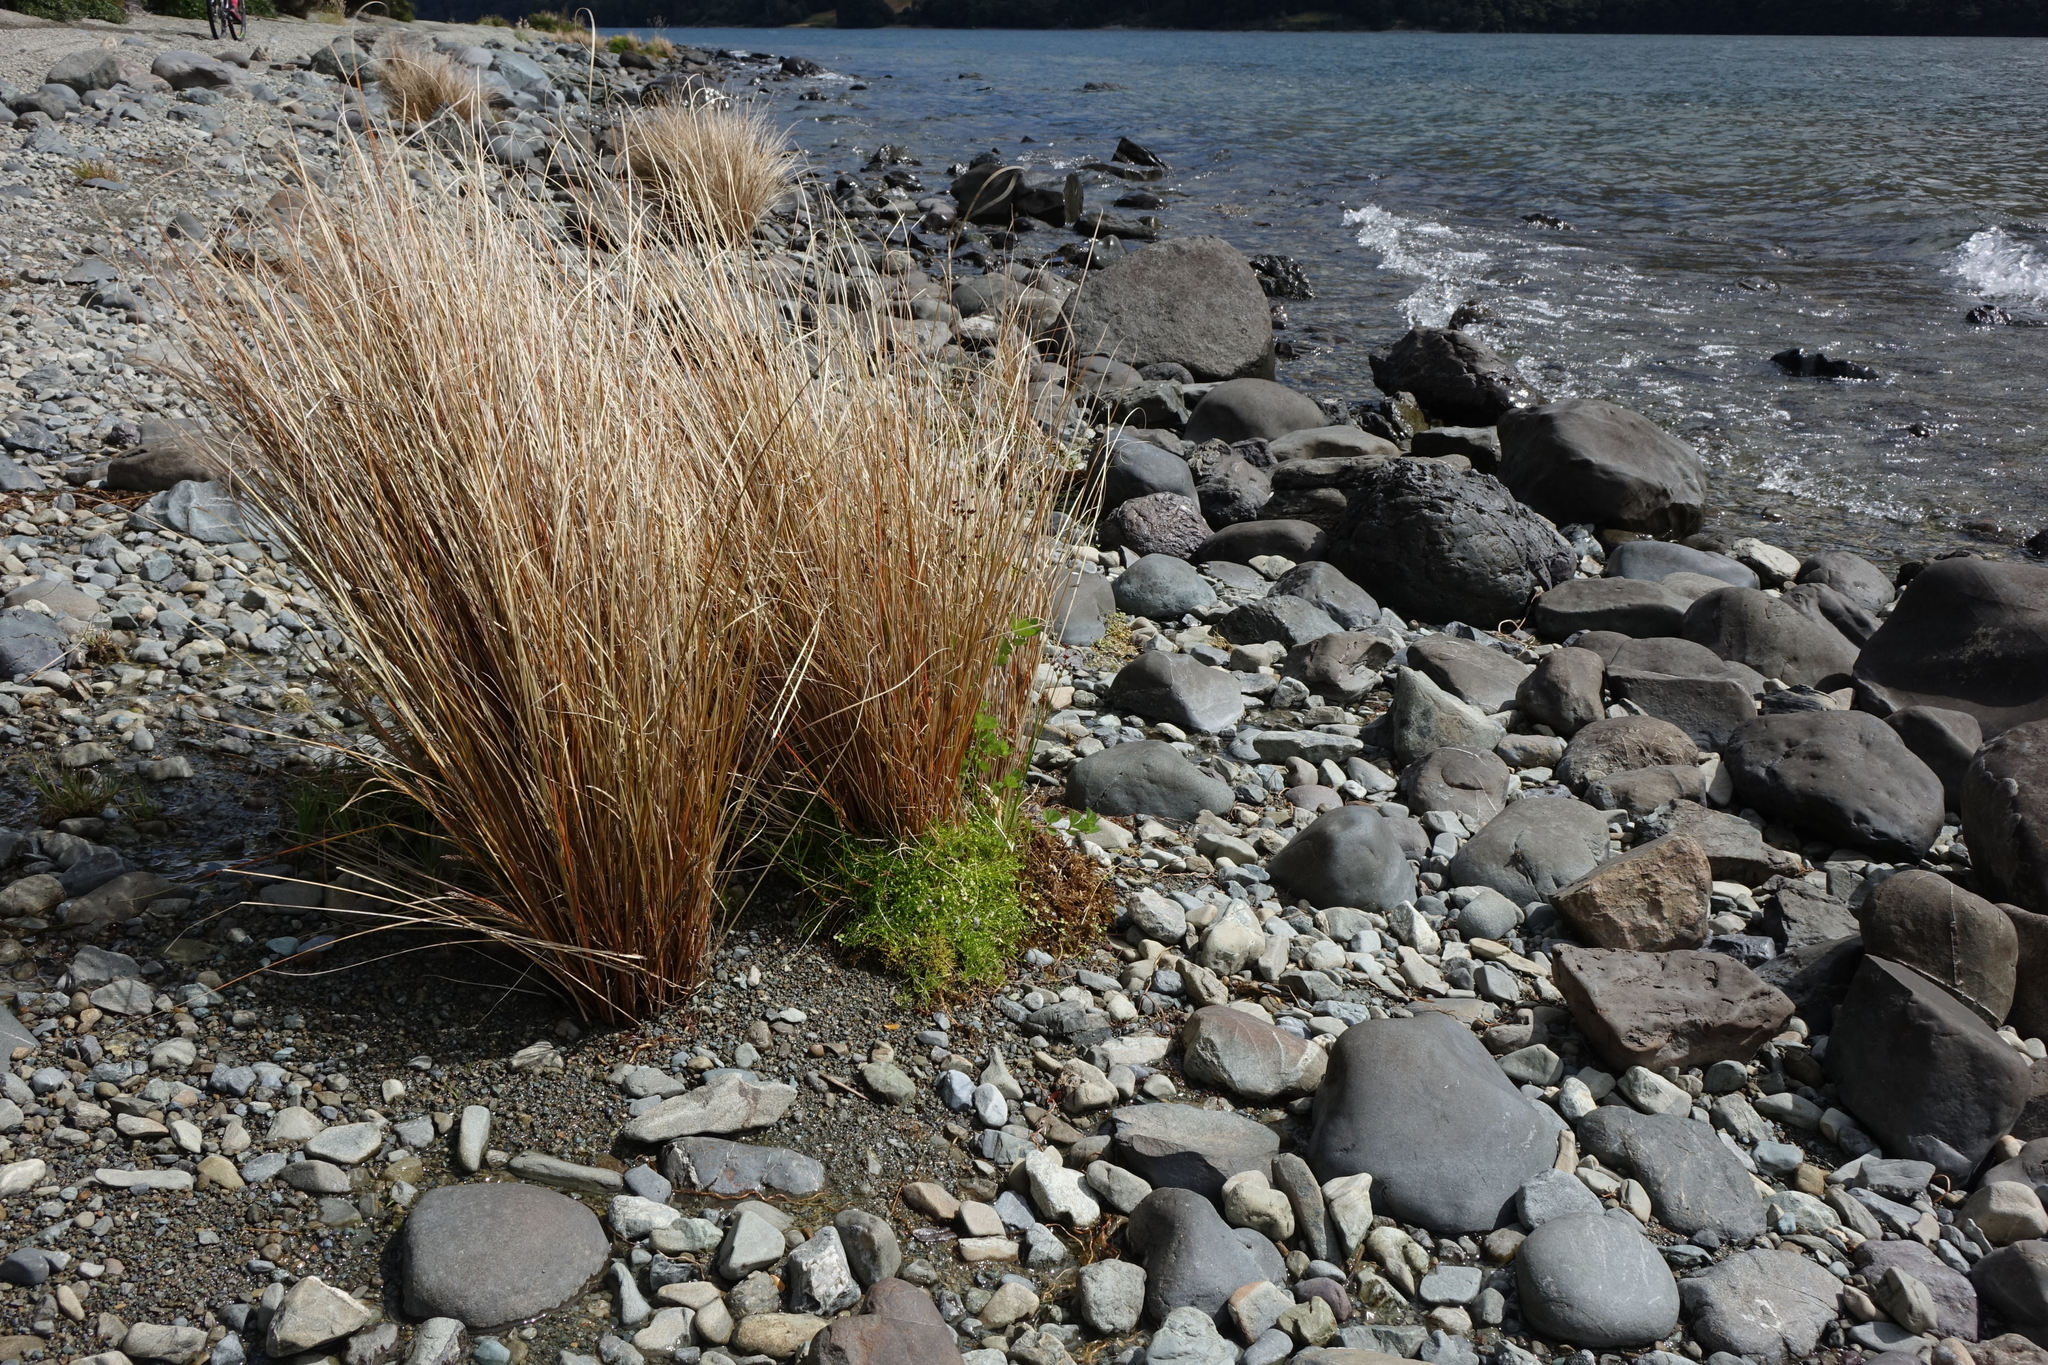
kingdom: Plantae
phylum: Tracheophyta
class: Liliopsida
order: Poales
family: Cyperaceae
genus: Carex
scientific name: Carex buchananii
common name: Leatherleaf sedge
